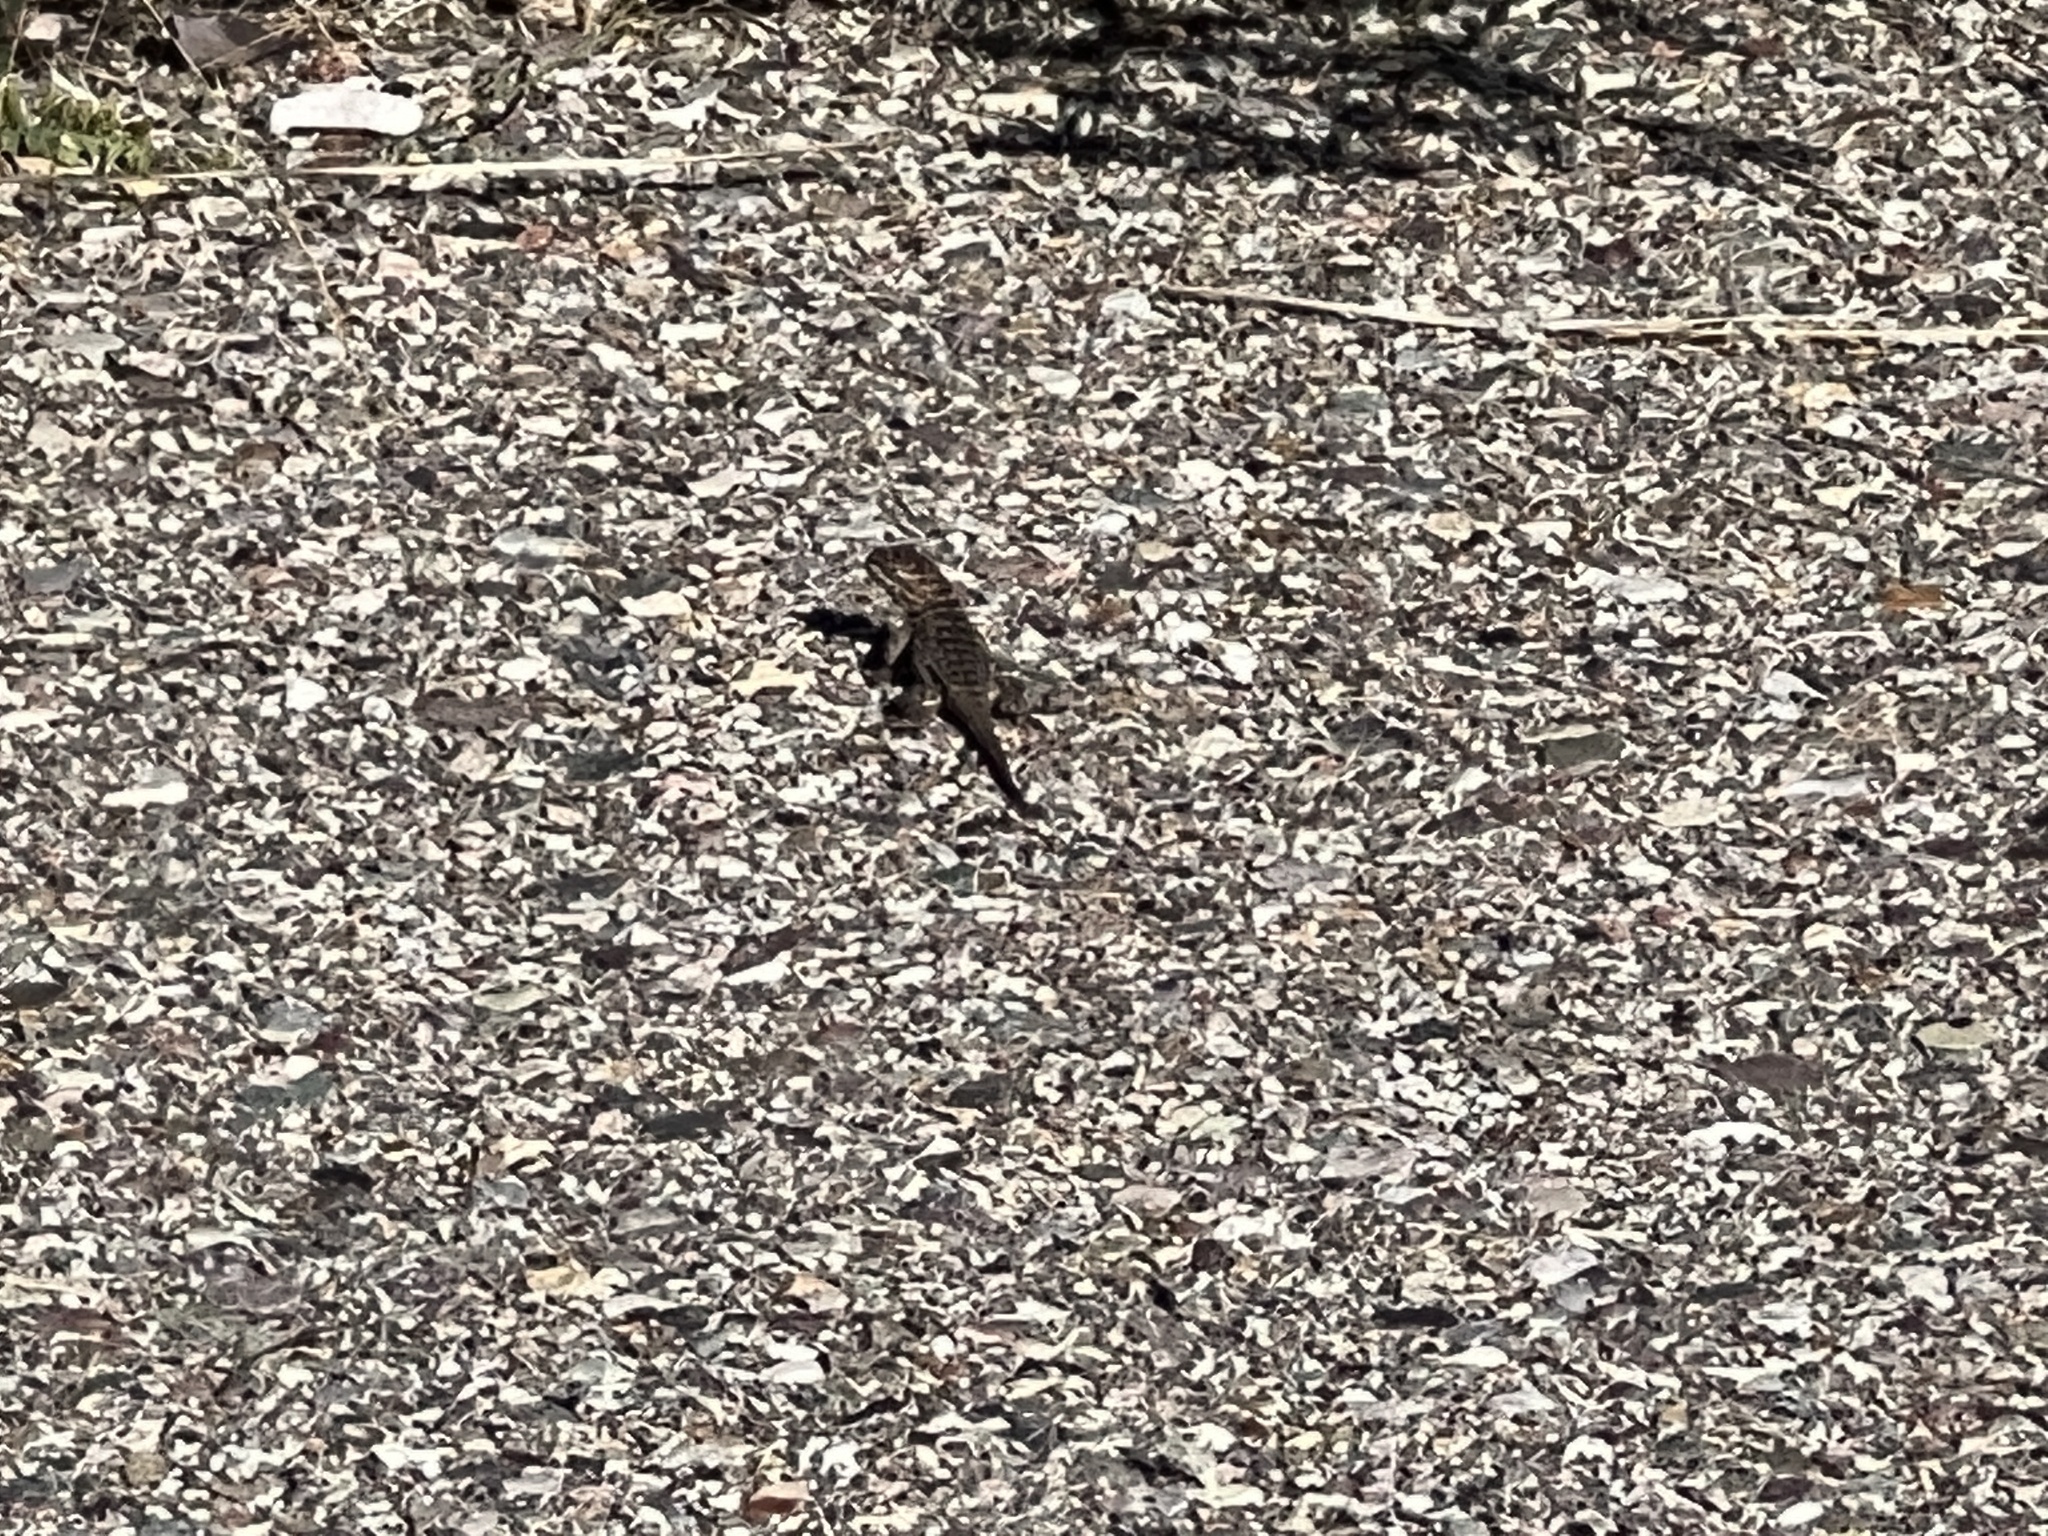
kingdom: Animalia
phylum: Chordata
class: Squamata
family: Phrynosomatidae
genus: Sceloporus
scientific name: Sceloporus magister
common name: Desert spiny lizard
